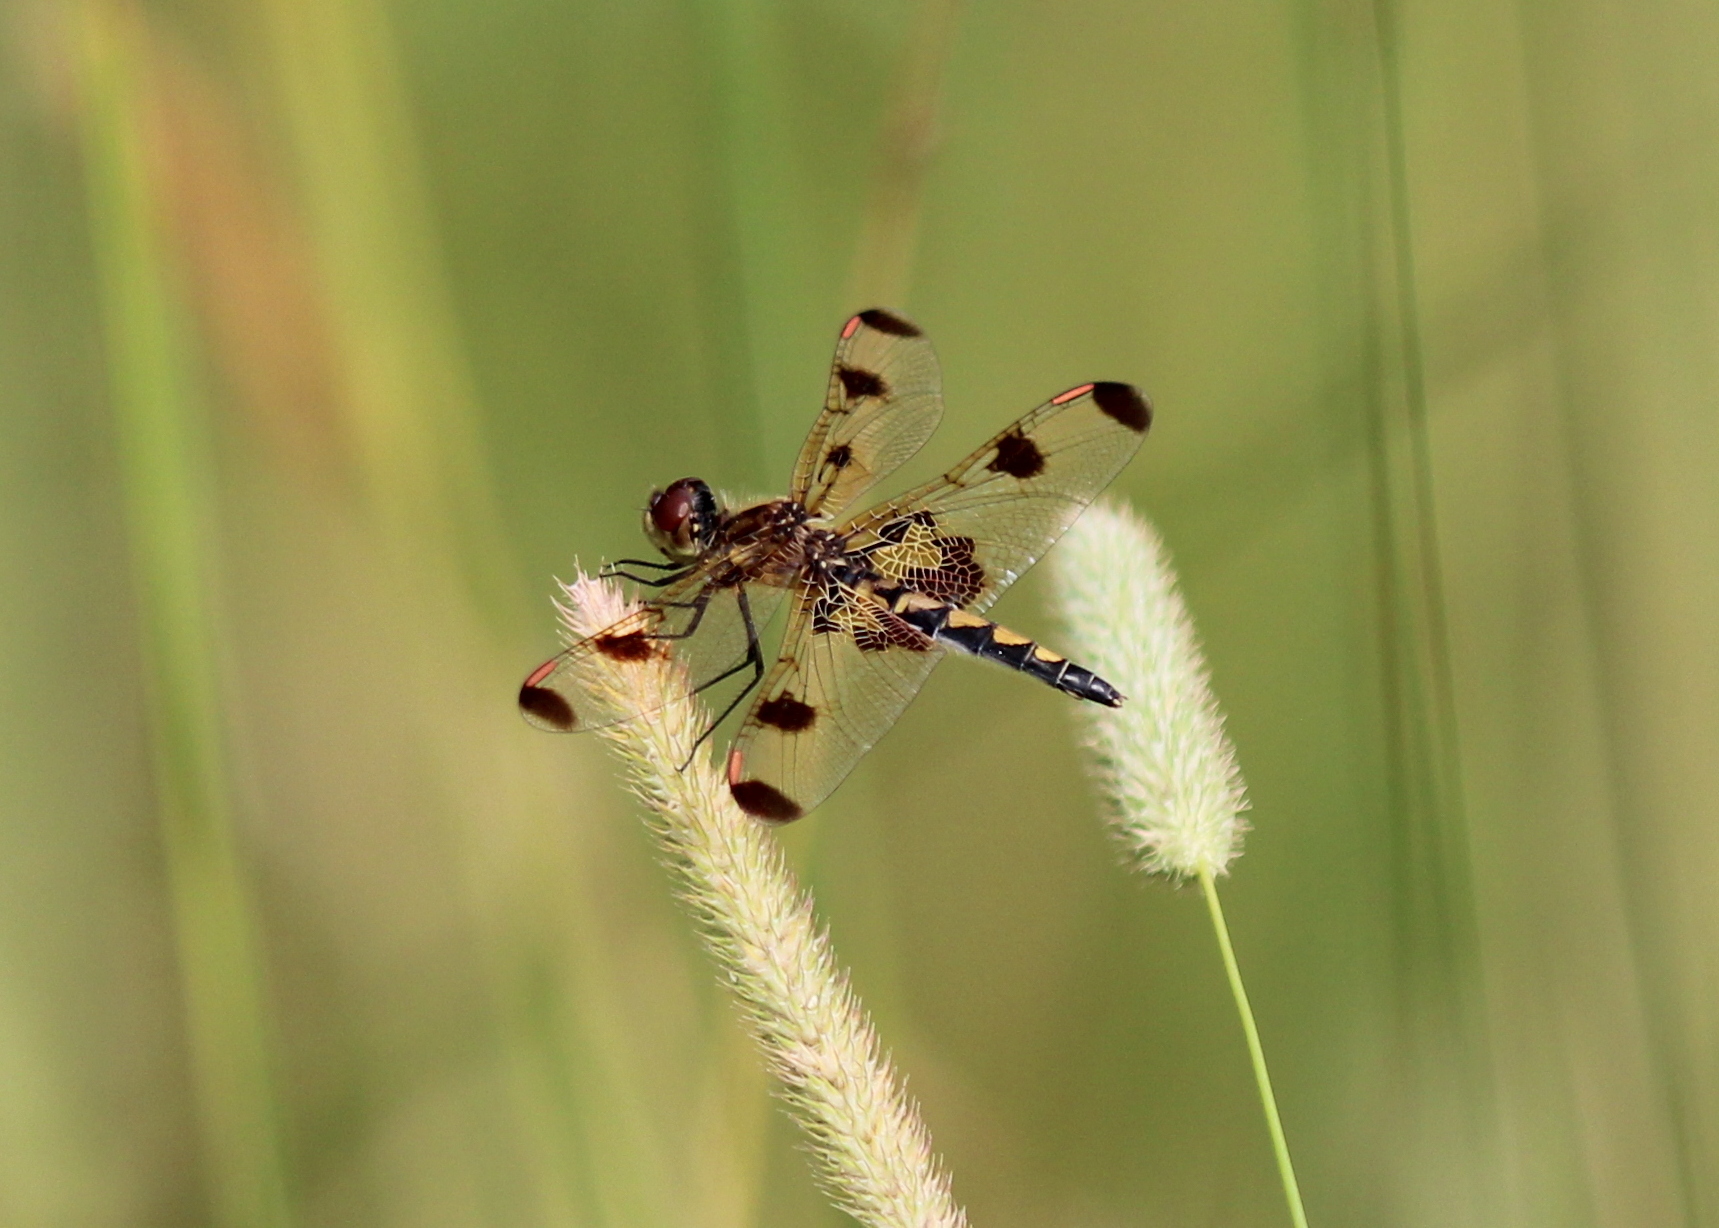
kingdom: Animalia
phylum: Arthropoda
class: Insecta
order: Odonata
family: Libellulidae
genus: Celithemis
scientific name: Celithemis elisa
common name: Calico pennant
